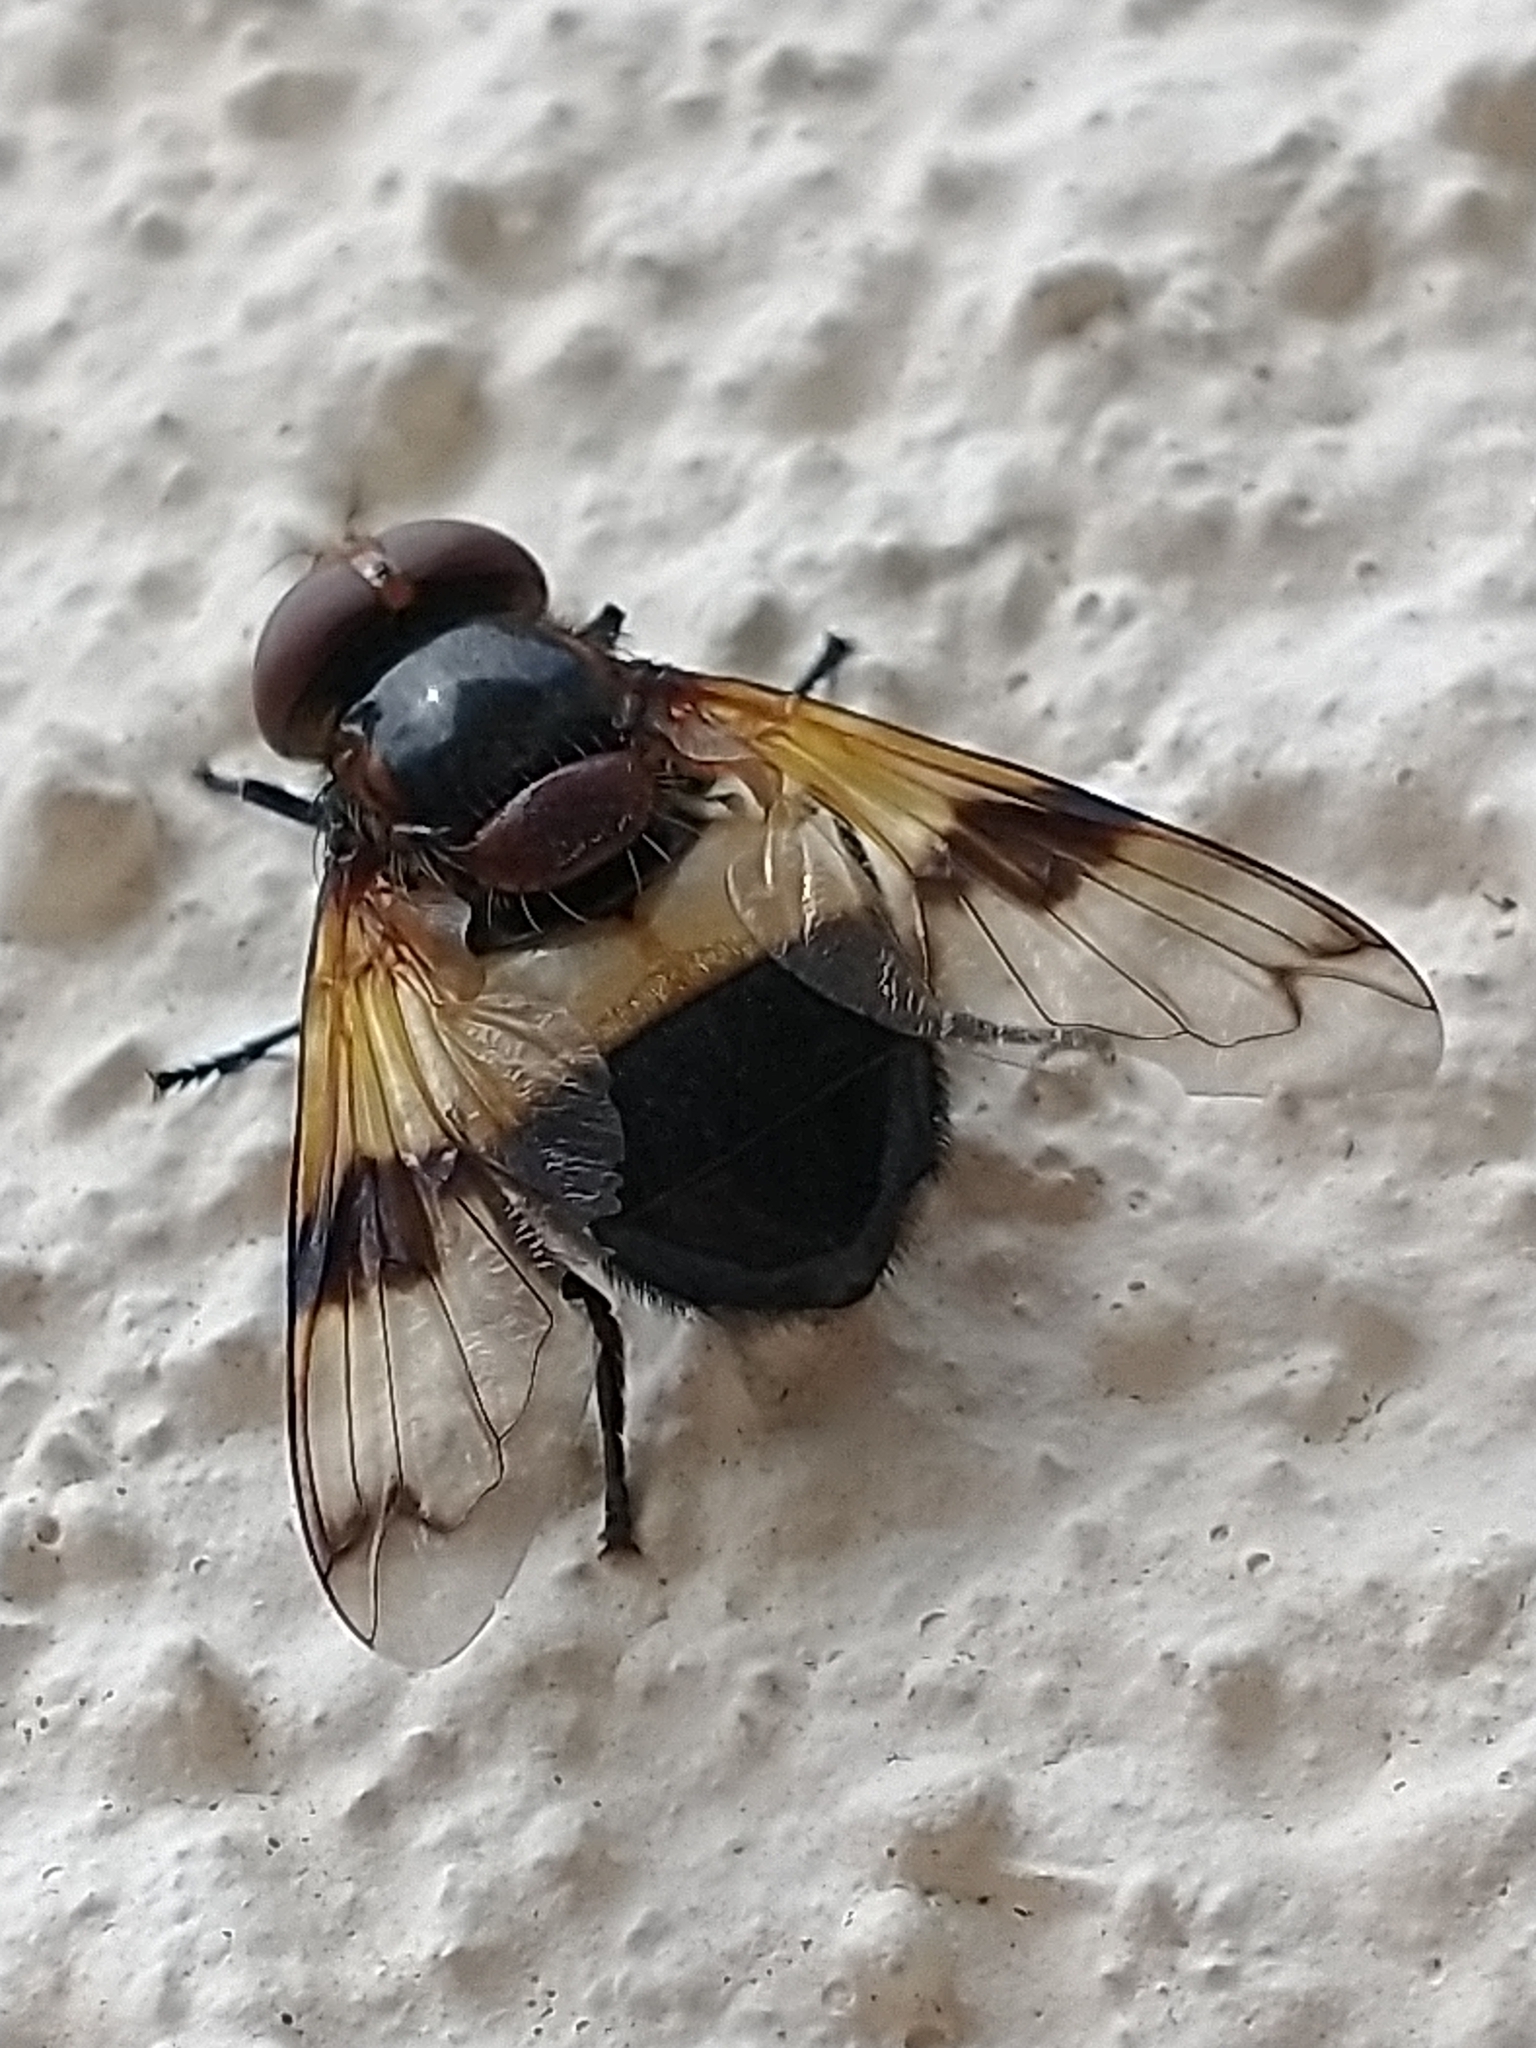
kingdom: Animalia
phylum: Arthropoda
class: Insecta
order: Diptera
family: Syrphidae
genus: Volucella
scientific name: Volucella pellucens
